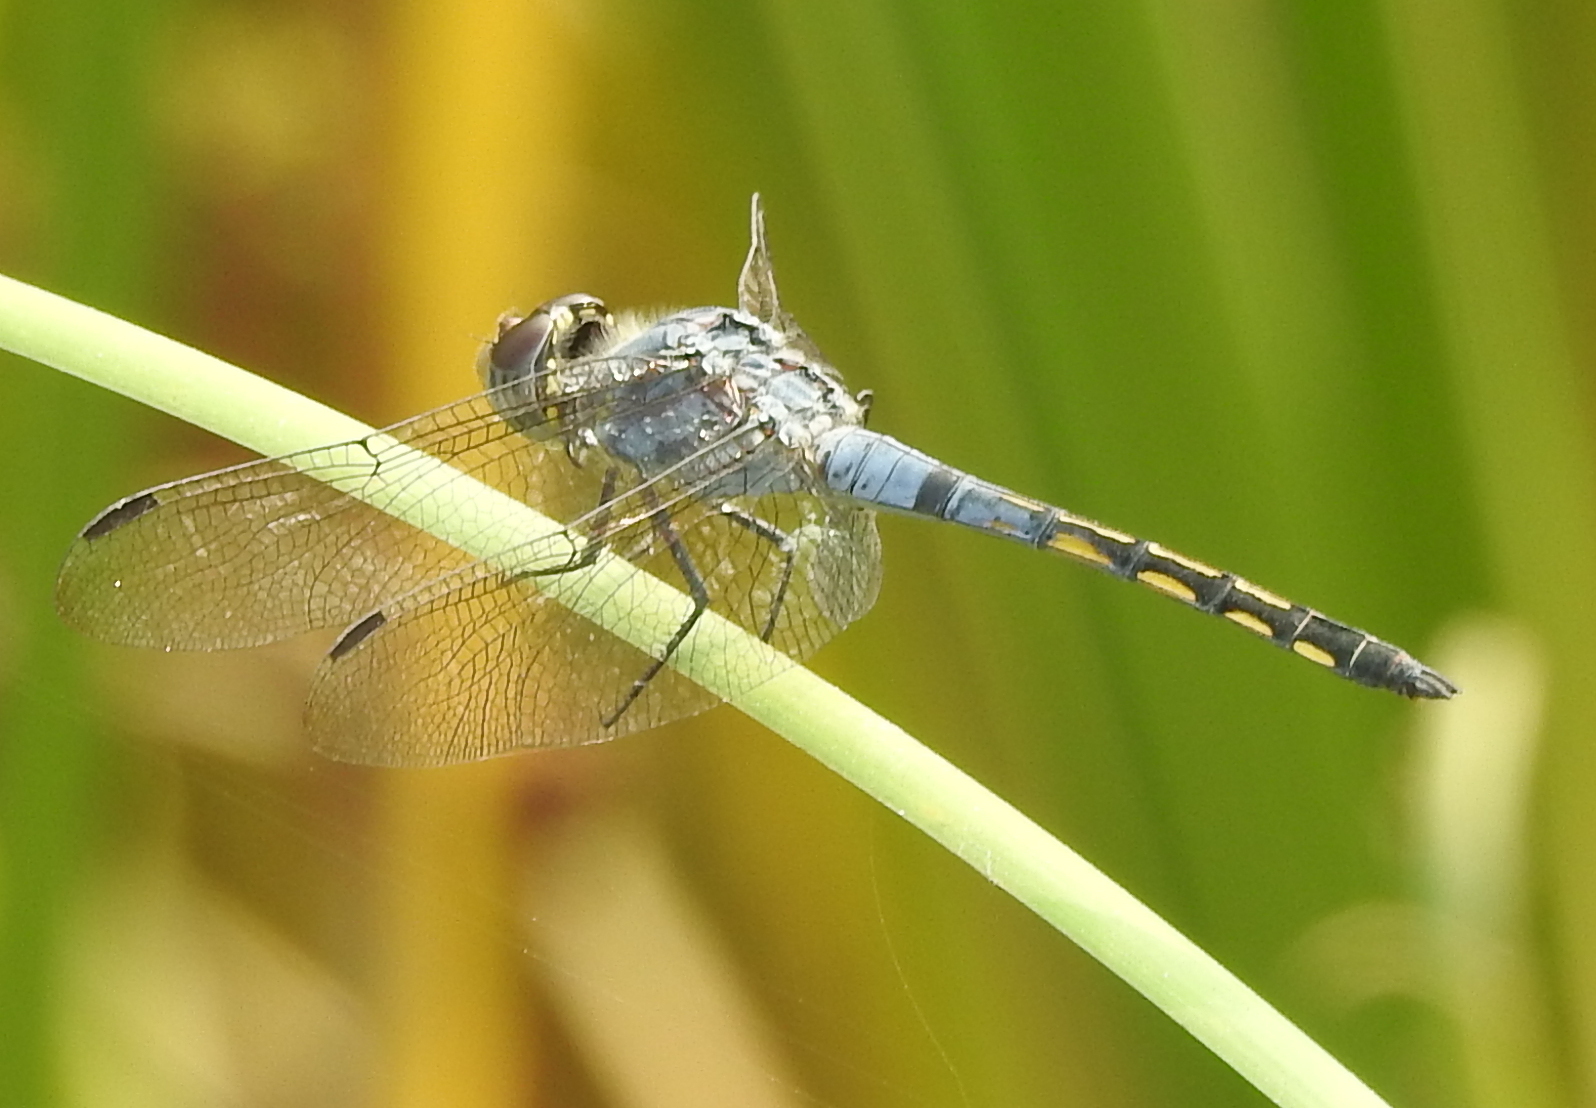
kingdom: Animalia
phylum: Arthropoda
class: Insecta
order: Odonata
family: Libellulidae
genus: Potamarcha
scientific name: Potamarcha congener
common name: Blue chaser
